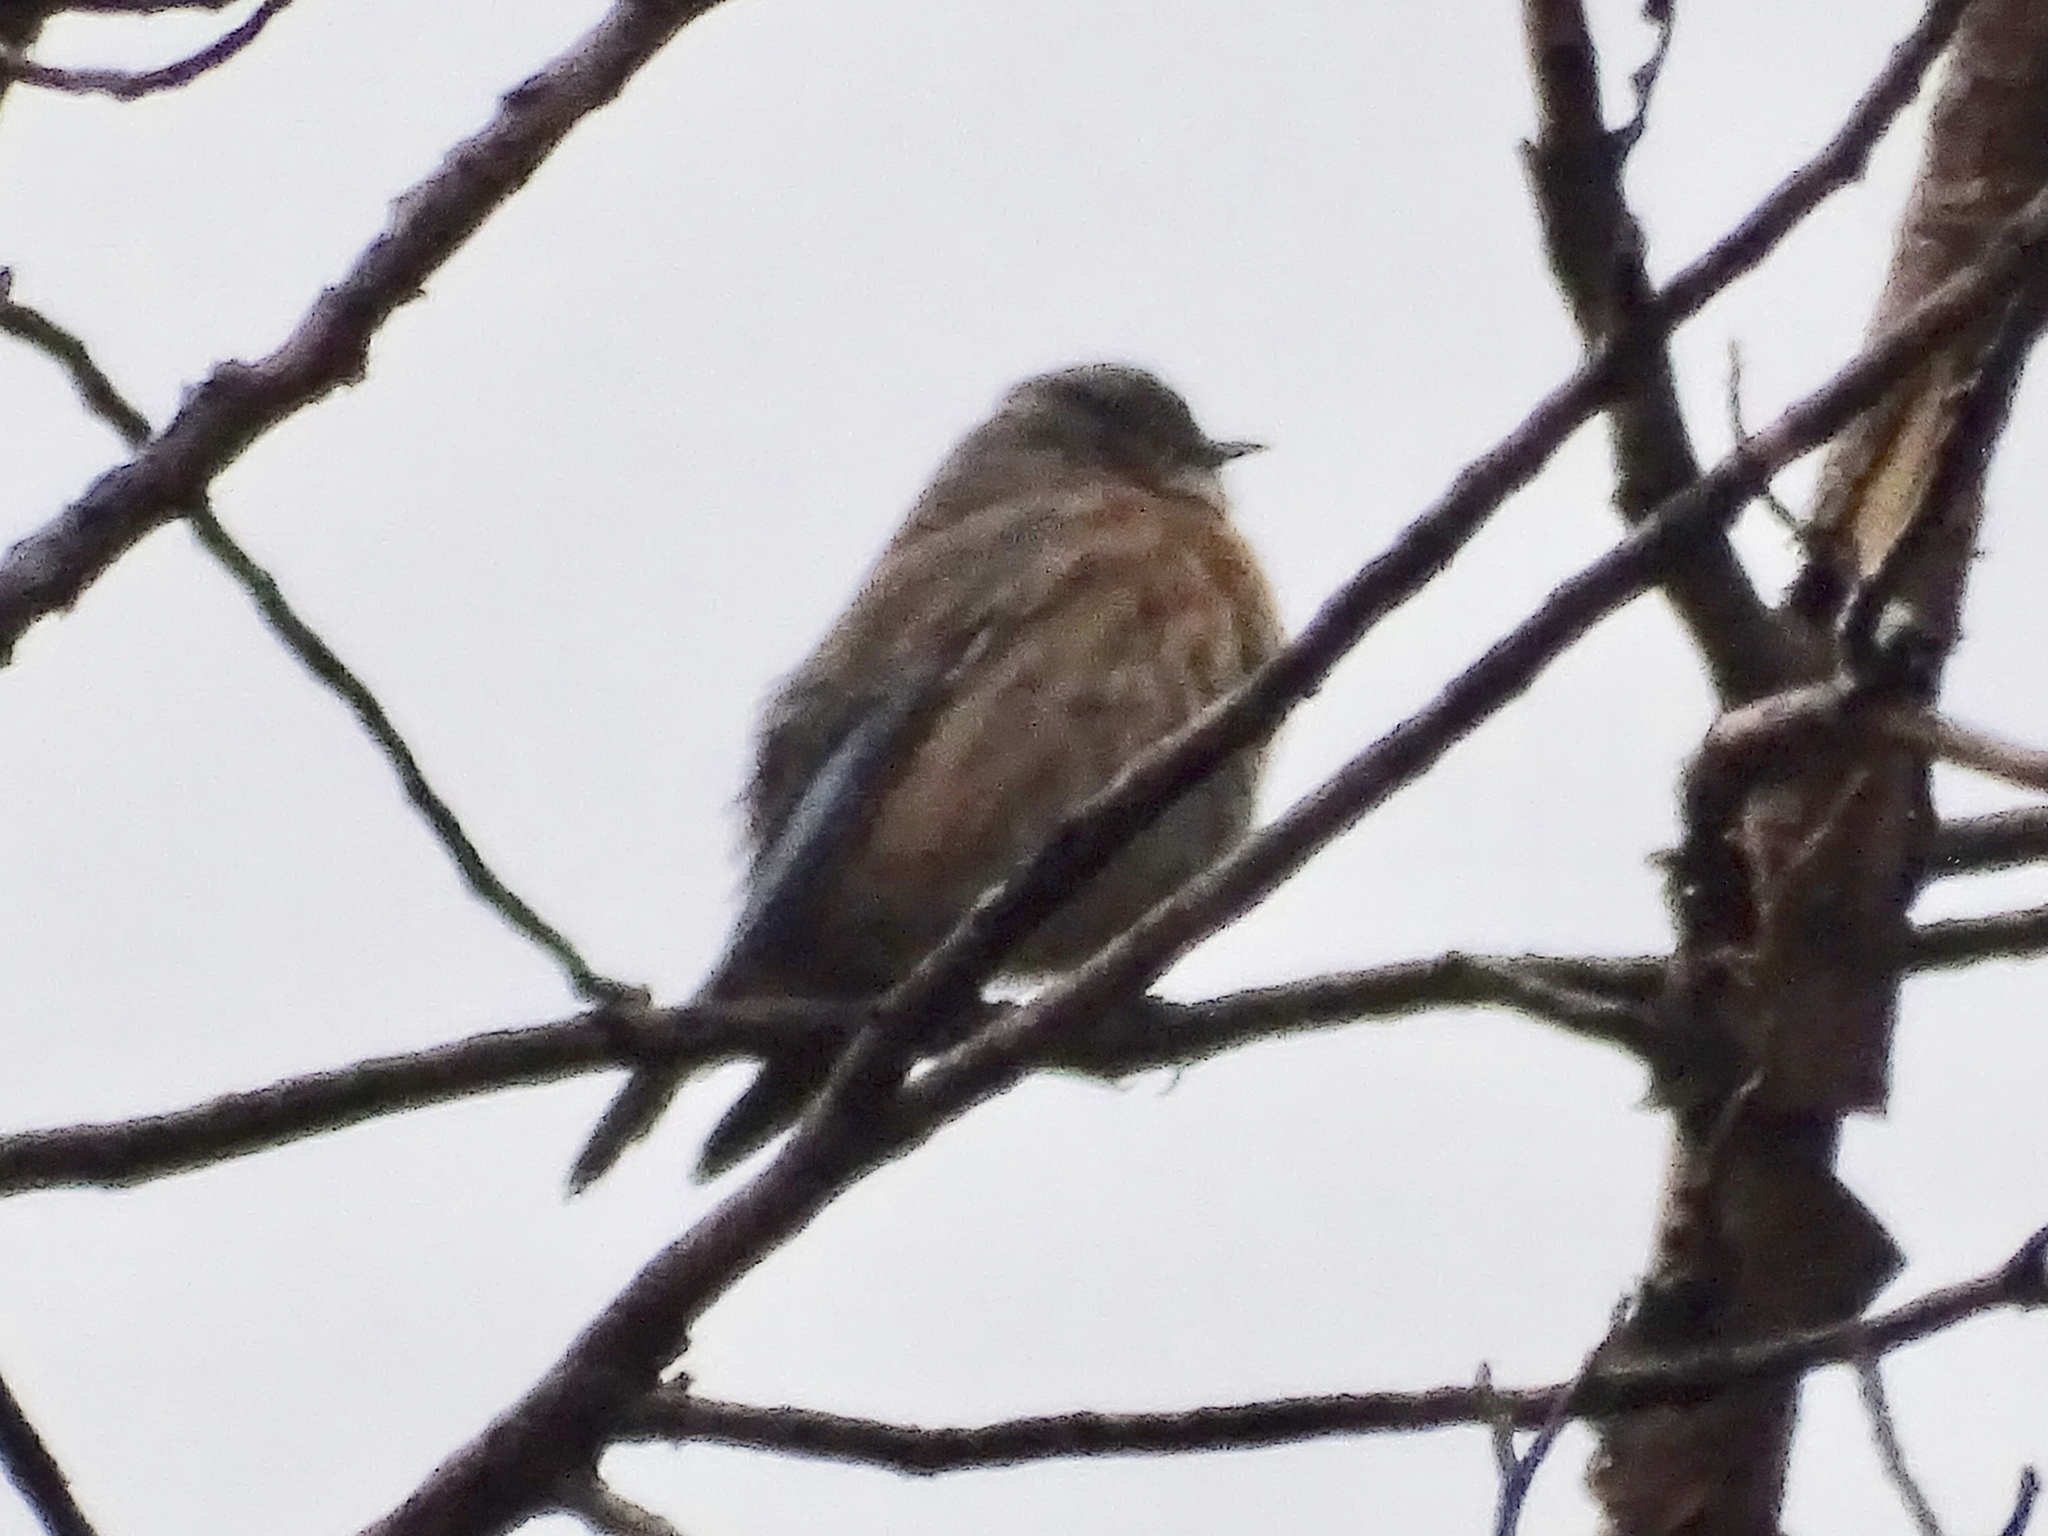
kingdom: Animalia
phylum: Chordata
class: Aves
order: Passeriformes
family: Turdidae
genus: Sialia
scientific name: Sialia mexicana
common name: Western bluebird
